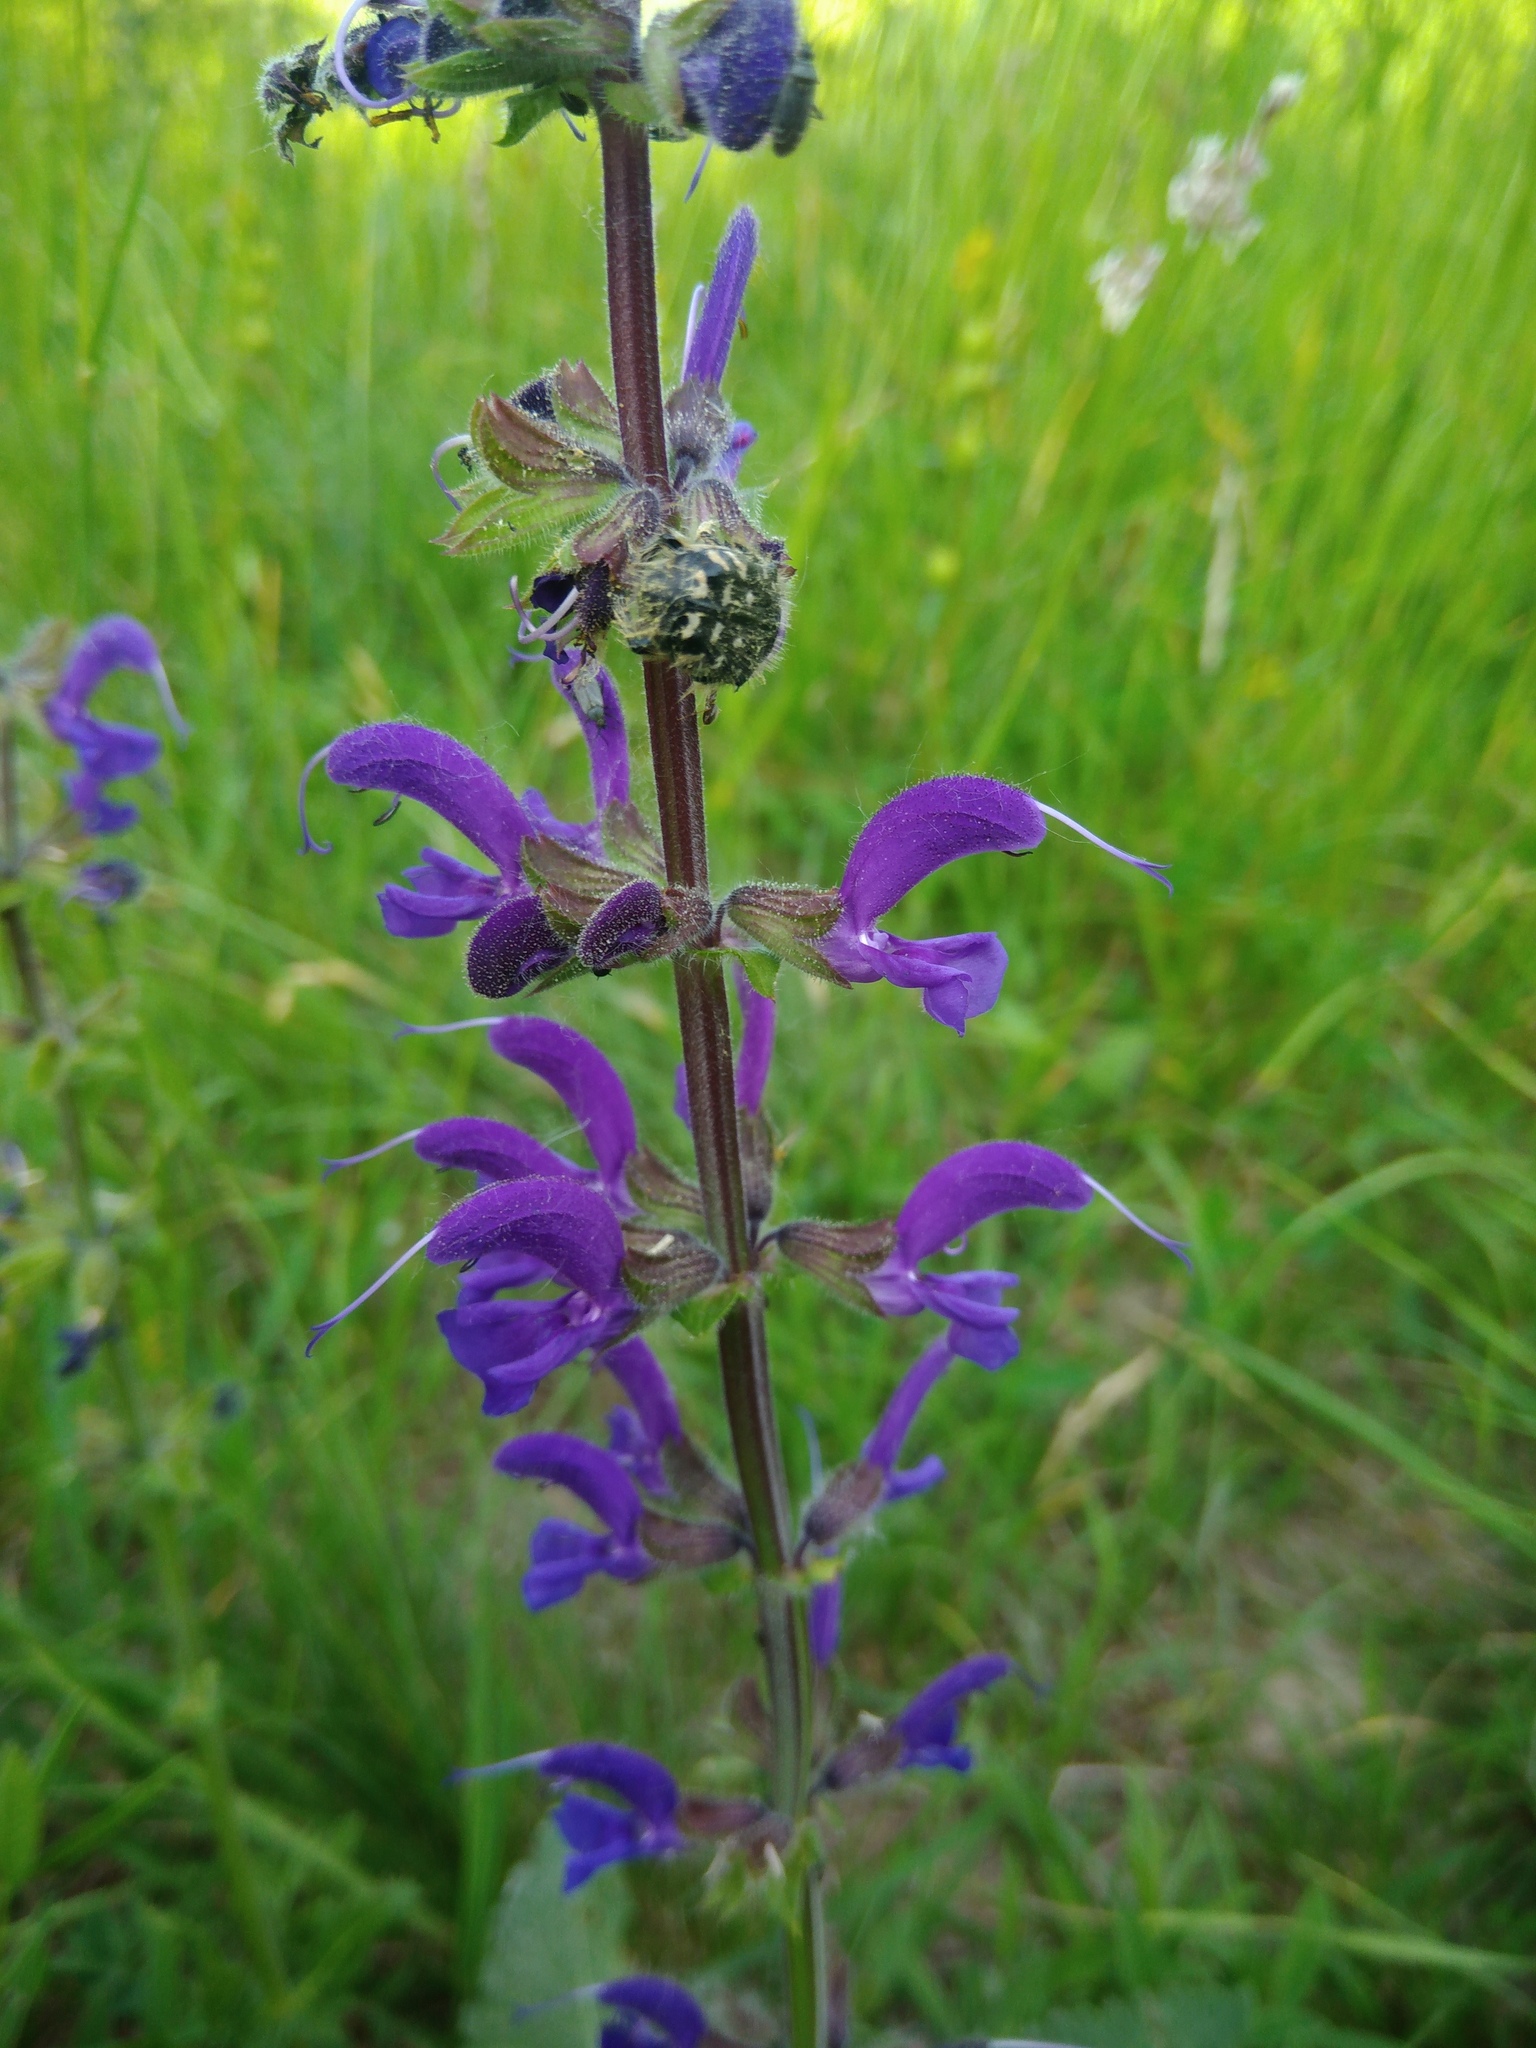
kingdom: Plantae
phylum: Tracheophyta
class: Magnoliopsida
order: Lamiales
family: Lamiaceae
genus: Salvia
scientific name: Salvia pratensis
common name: Meadow sage
